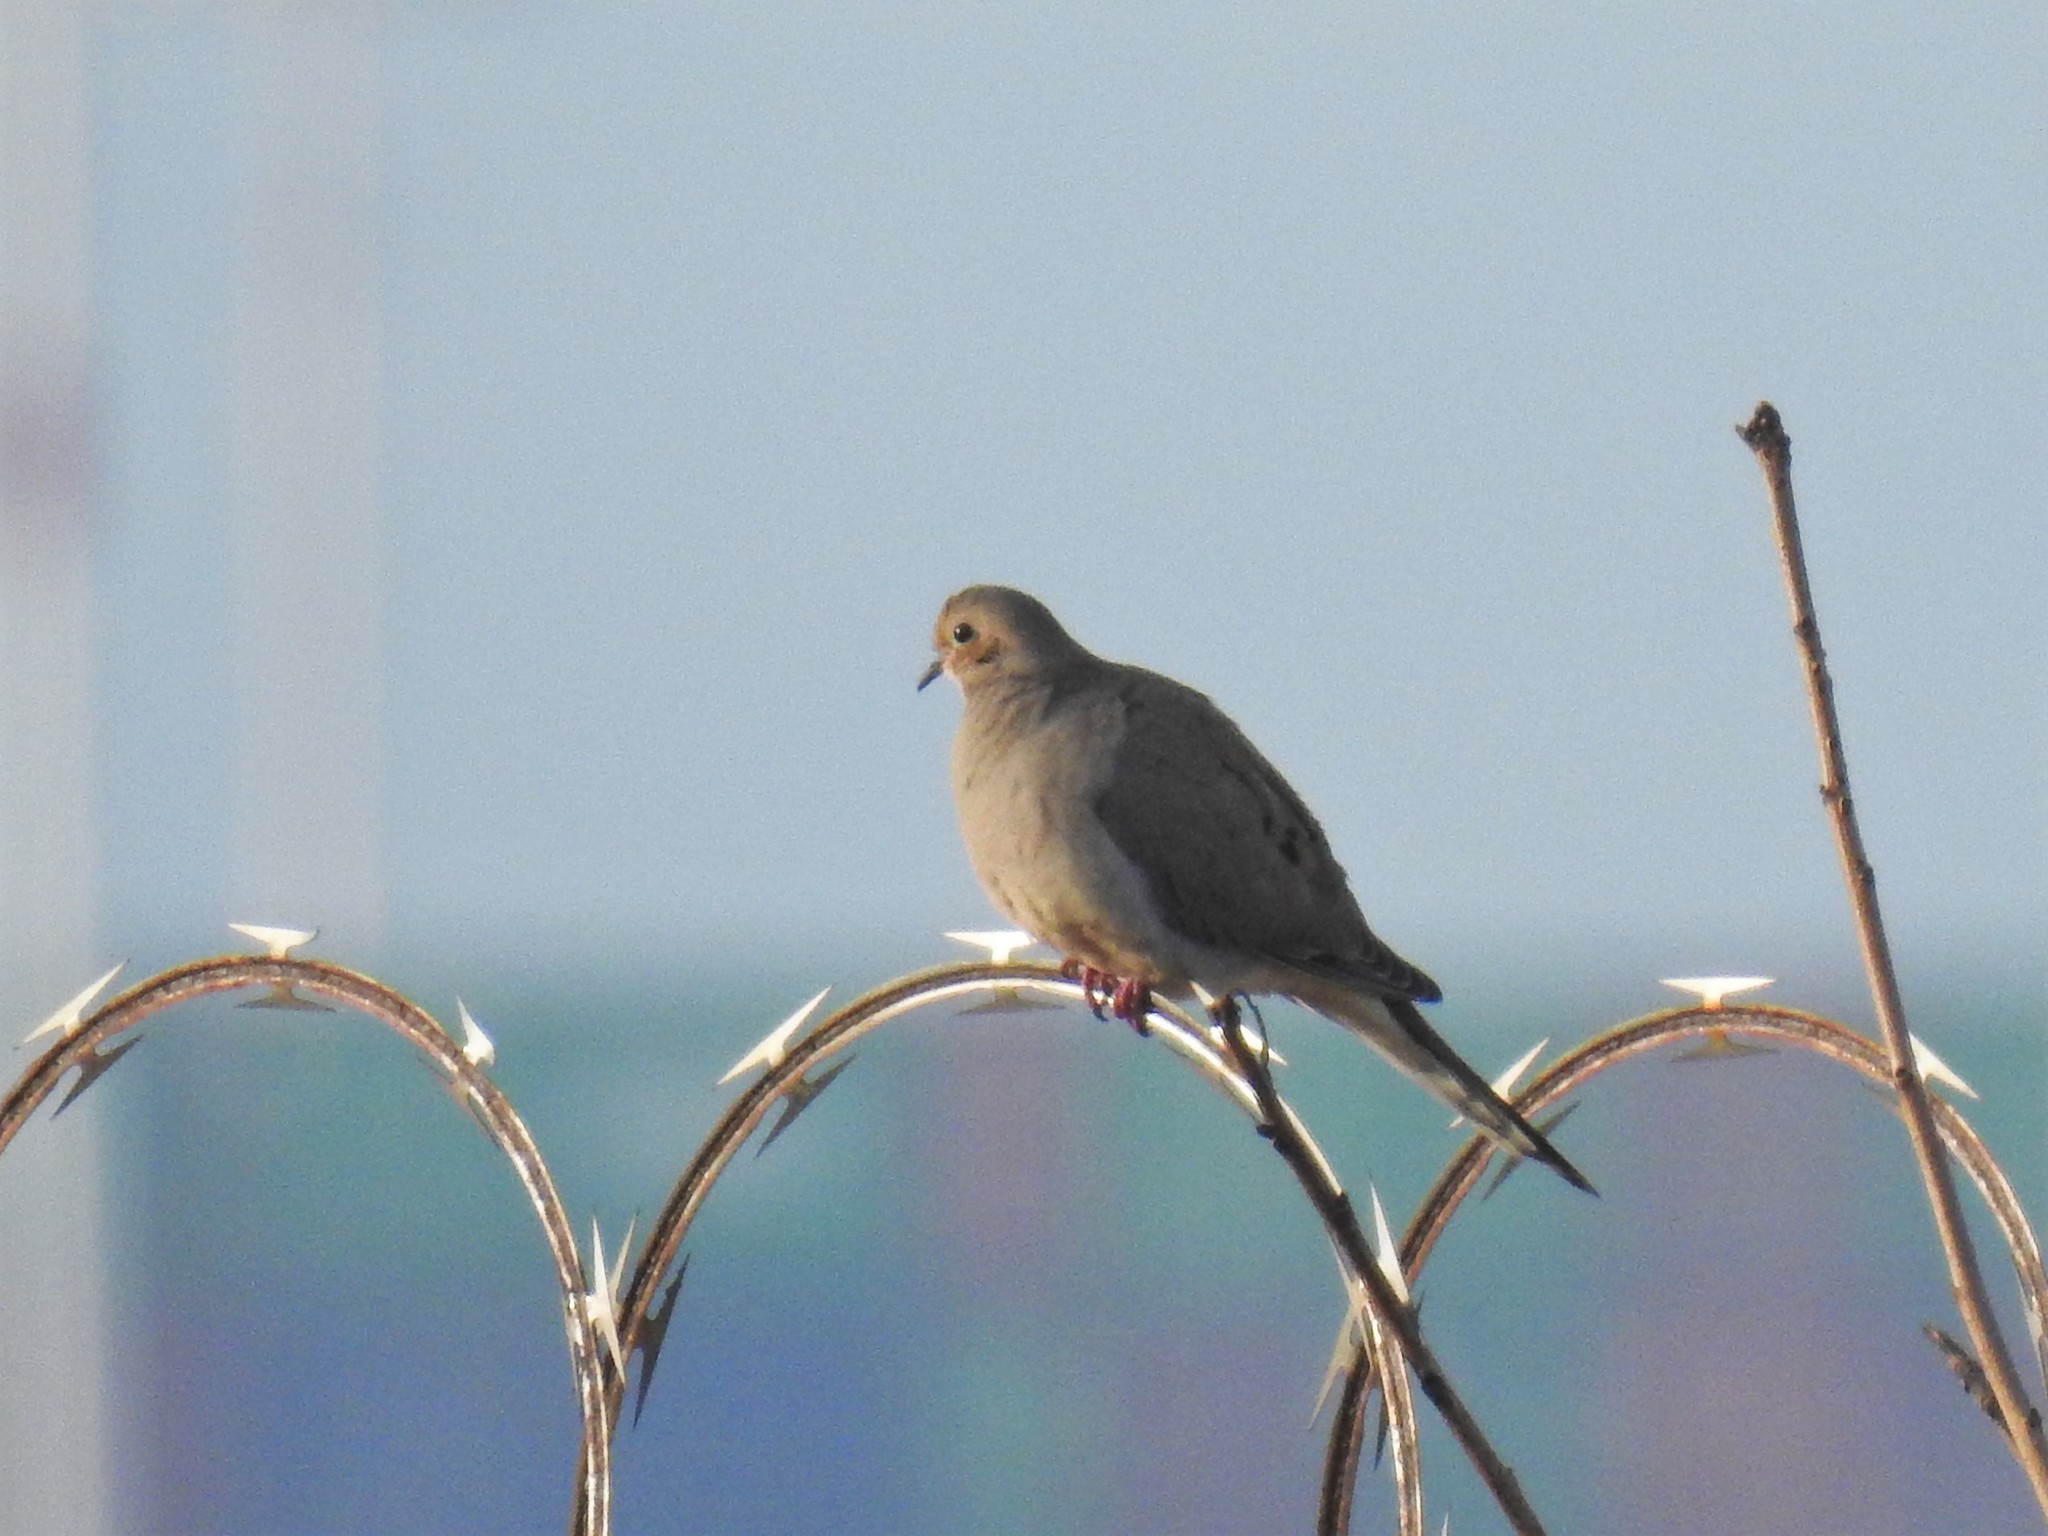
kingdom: Animalia
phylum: Chordata
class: Aves
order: Columbiformes
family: Columbidae
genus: Zenaida
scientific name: Zenaida macroura
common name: Mourning dove
